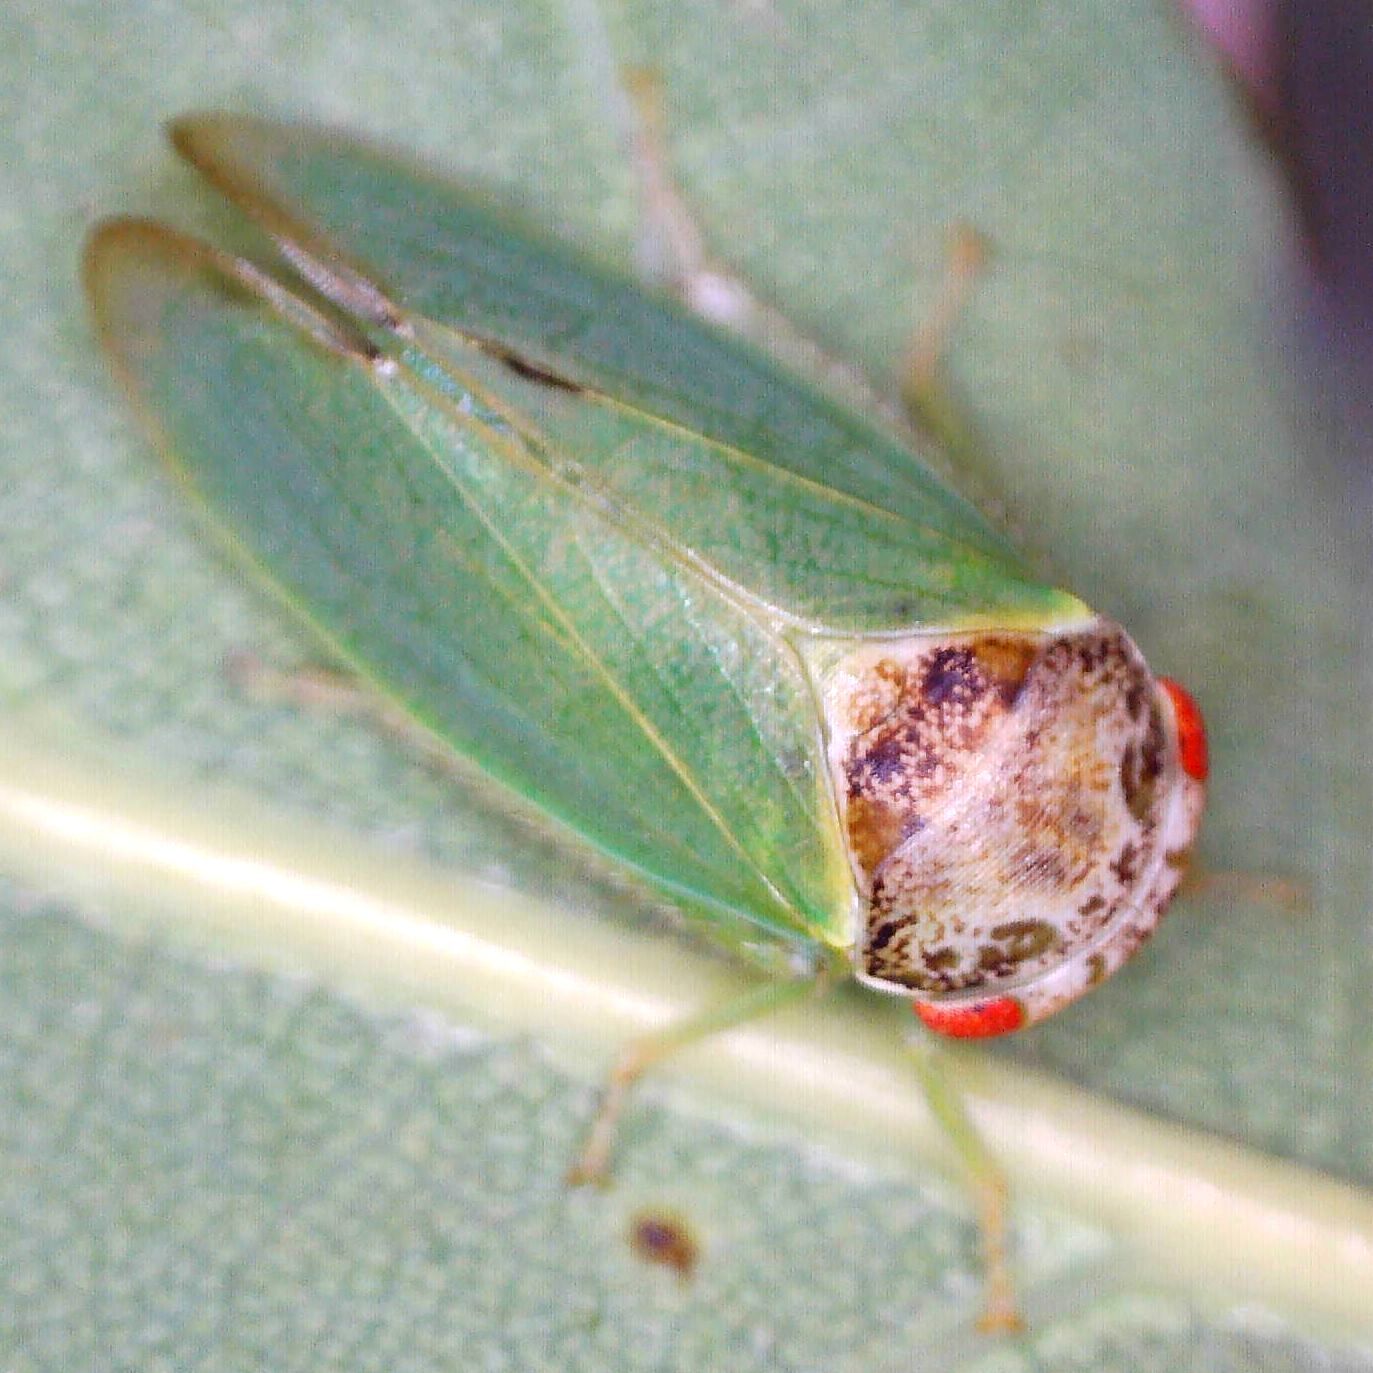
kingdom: Animalia
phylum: Arthropoda
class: Insecta
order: Hemiptera
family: Cicadellidae
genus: Iassus
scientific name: Iassus lanio
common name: Leafhopper
